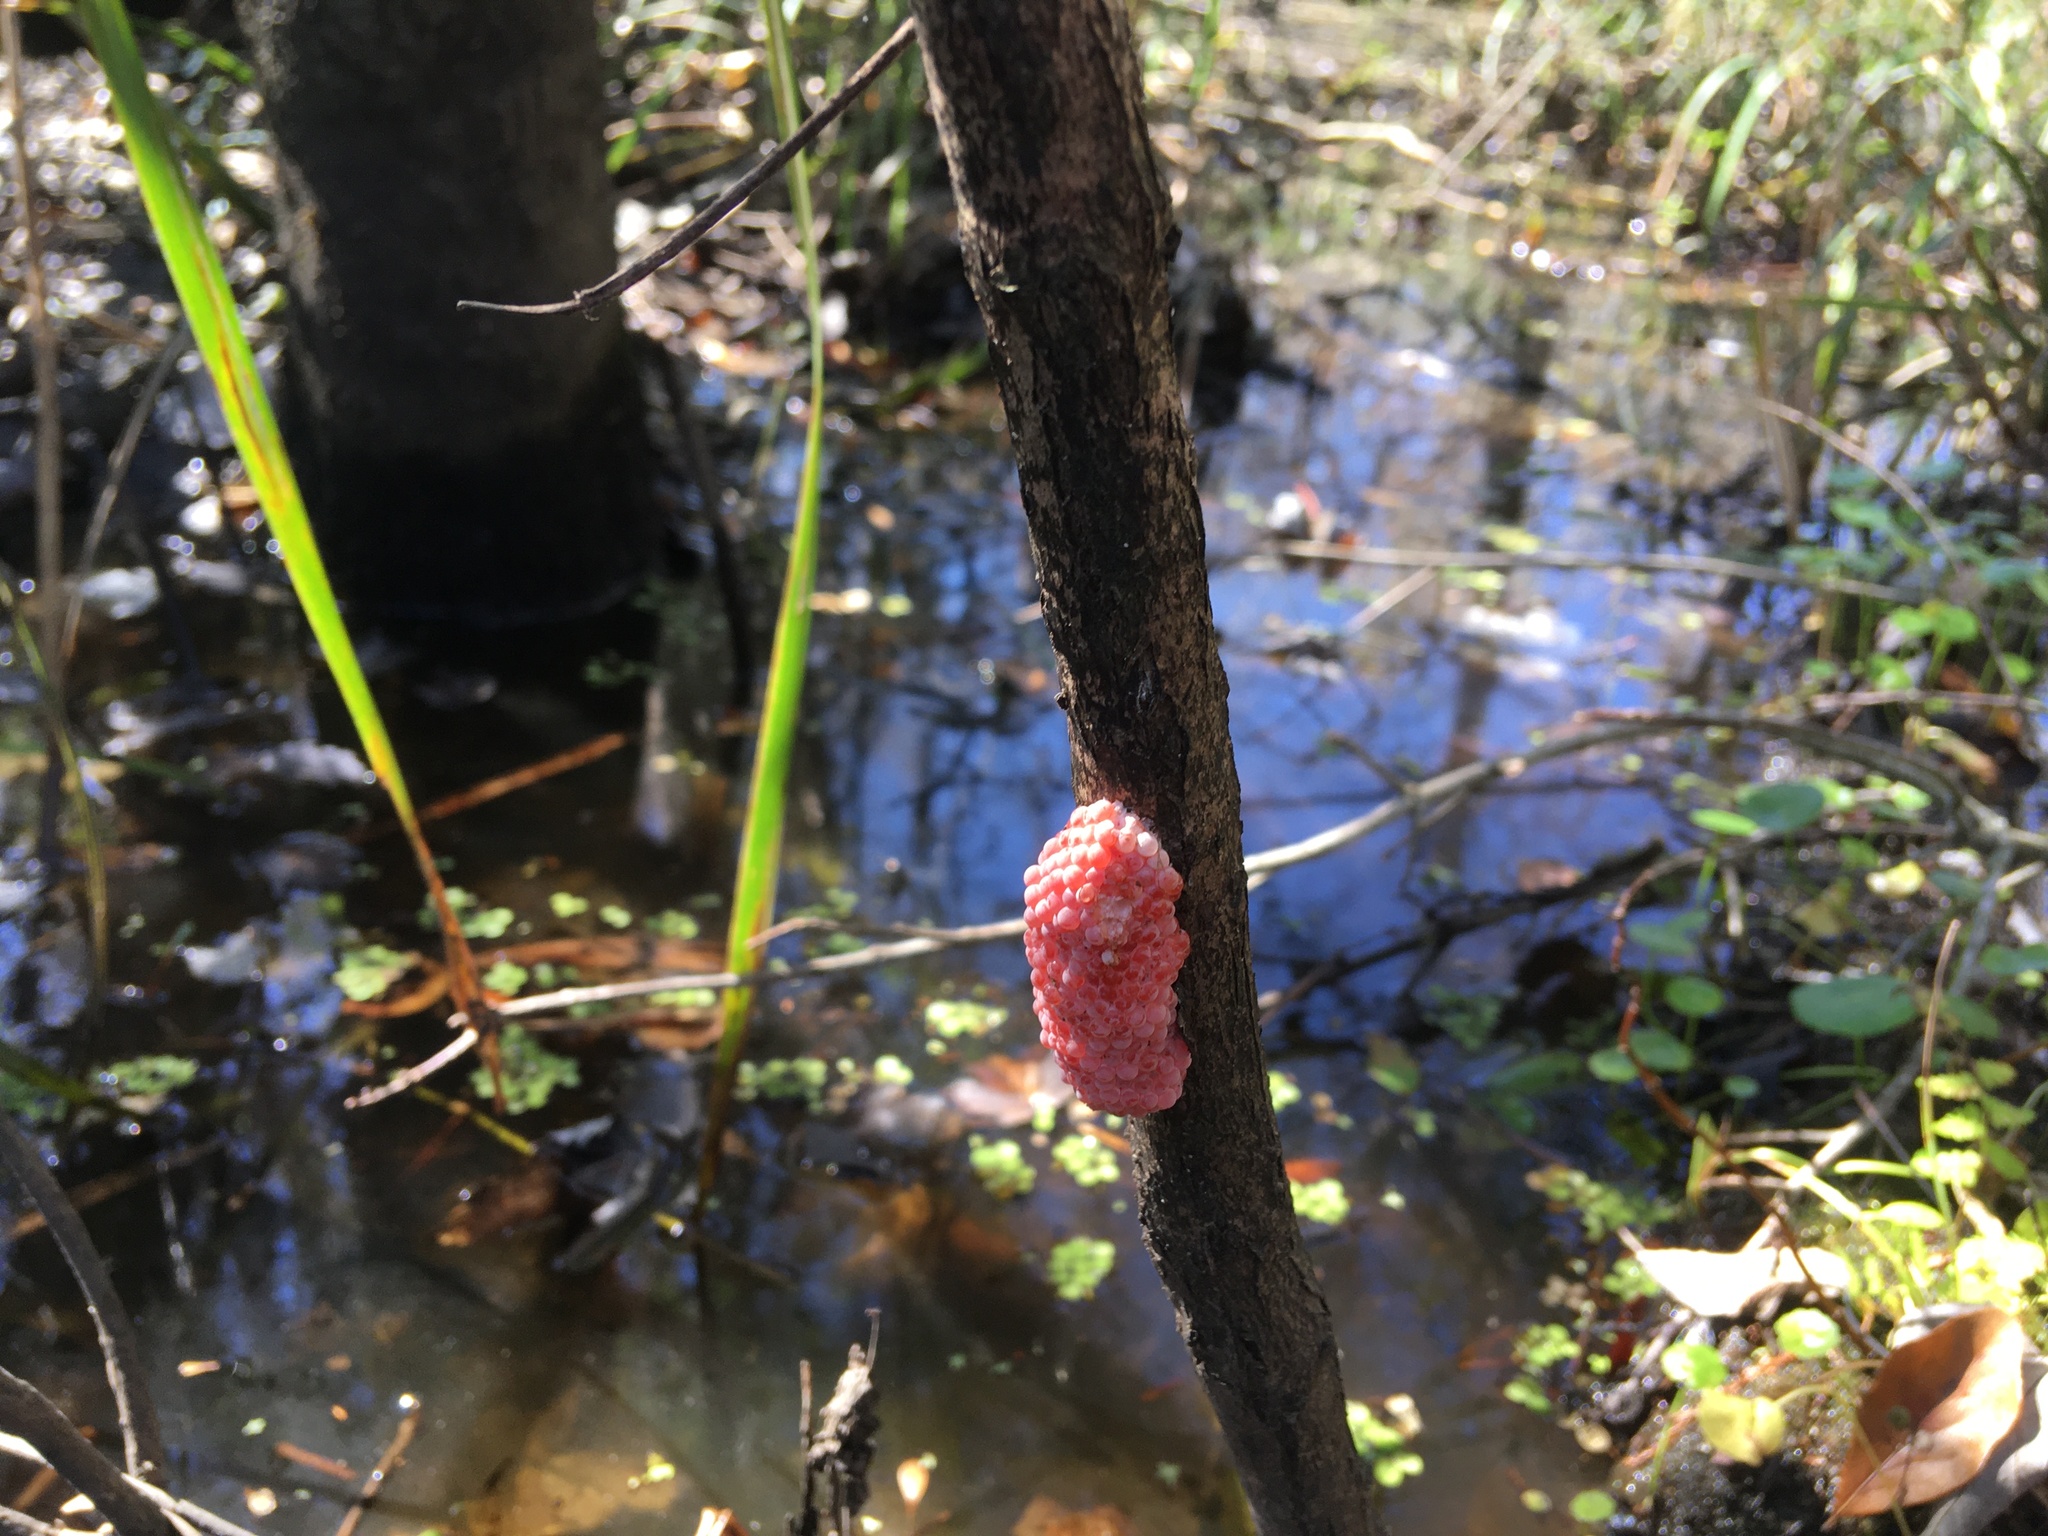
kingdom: Animalia
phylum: Mollusca
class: Gastropoda
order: Architaenioglossa
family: Ampullariidae
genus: Pomacea
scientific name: Pomacea maculata
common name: Giant applesnail
